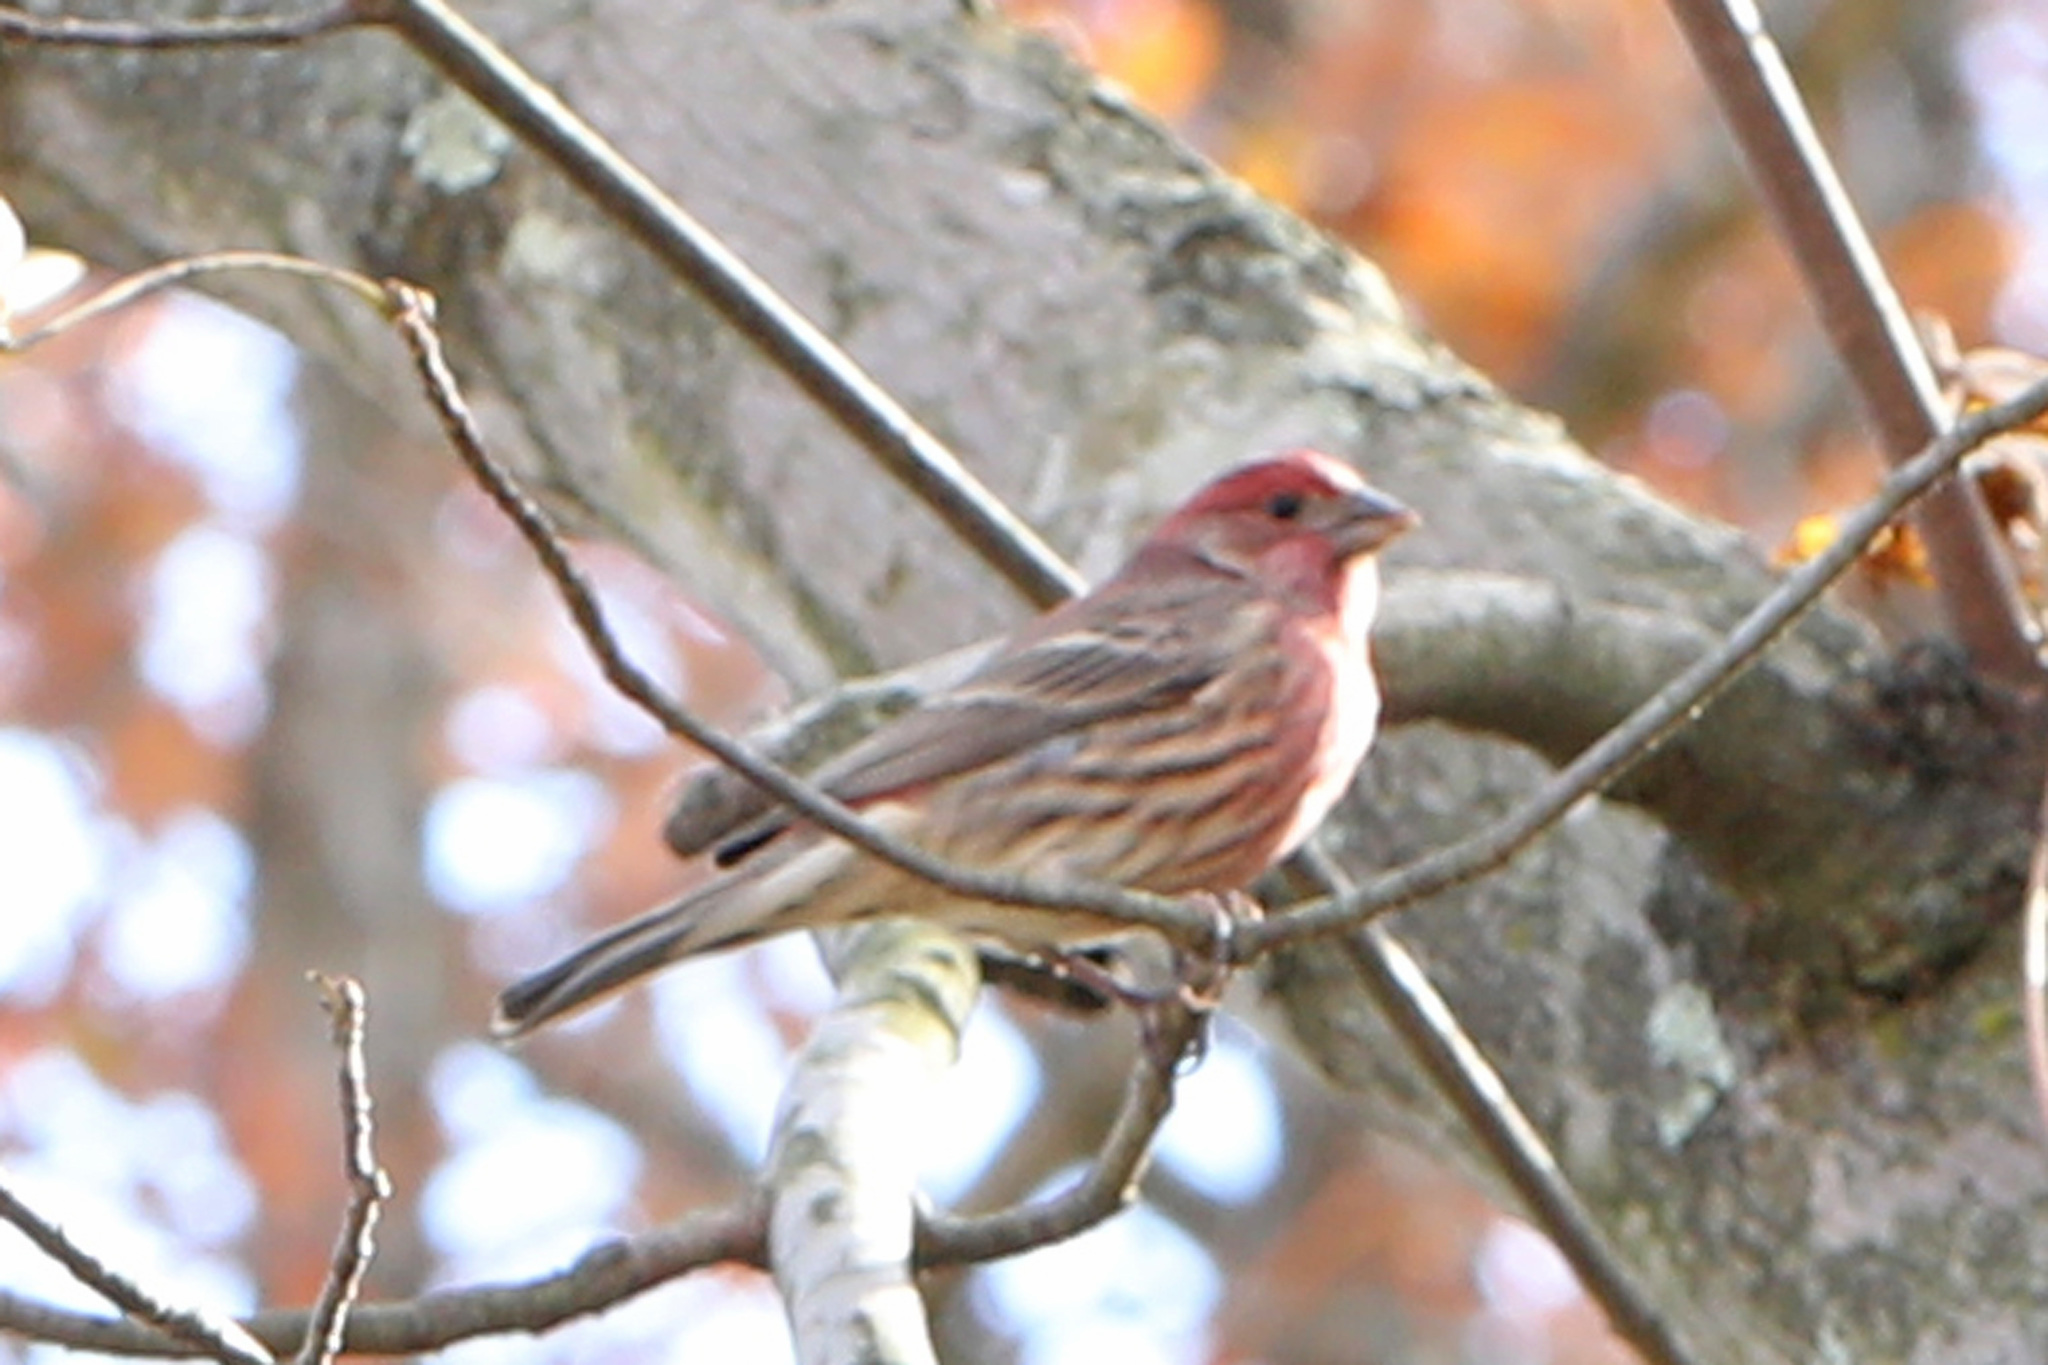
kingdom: Animalia
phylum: Chordata
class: Aves
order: Passeriformes
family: Fringillidae
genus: Haemorhous
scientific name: Haemorhous mexicanus
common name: House finch
